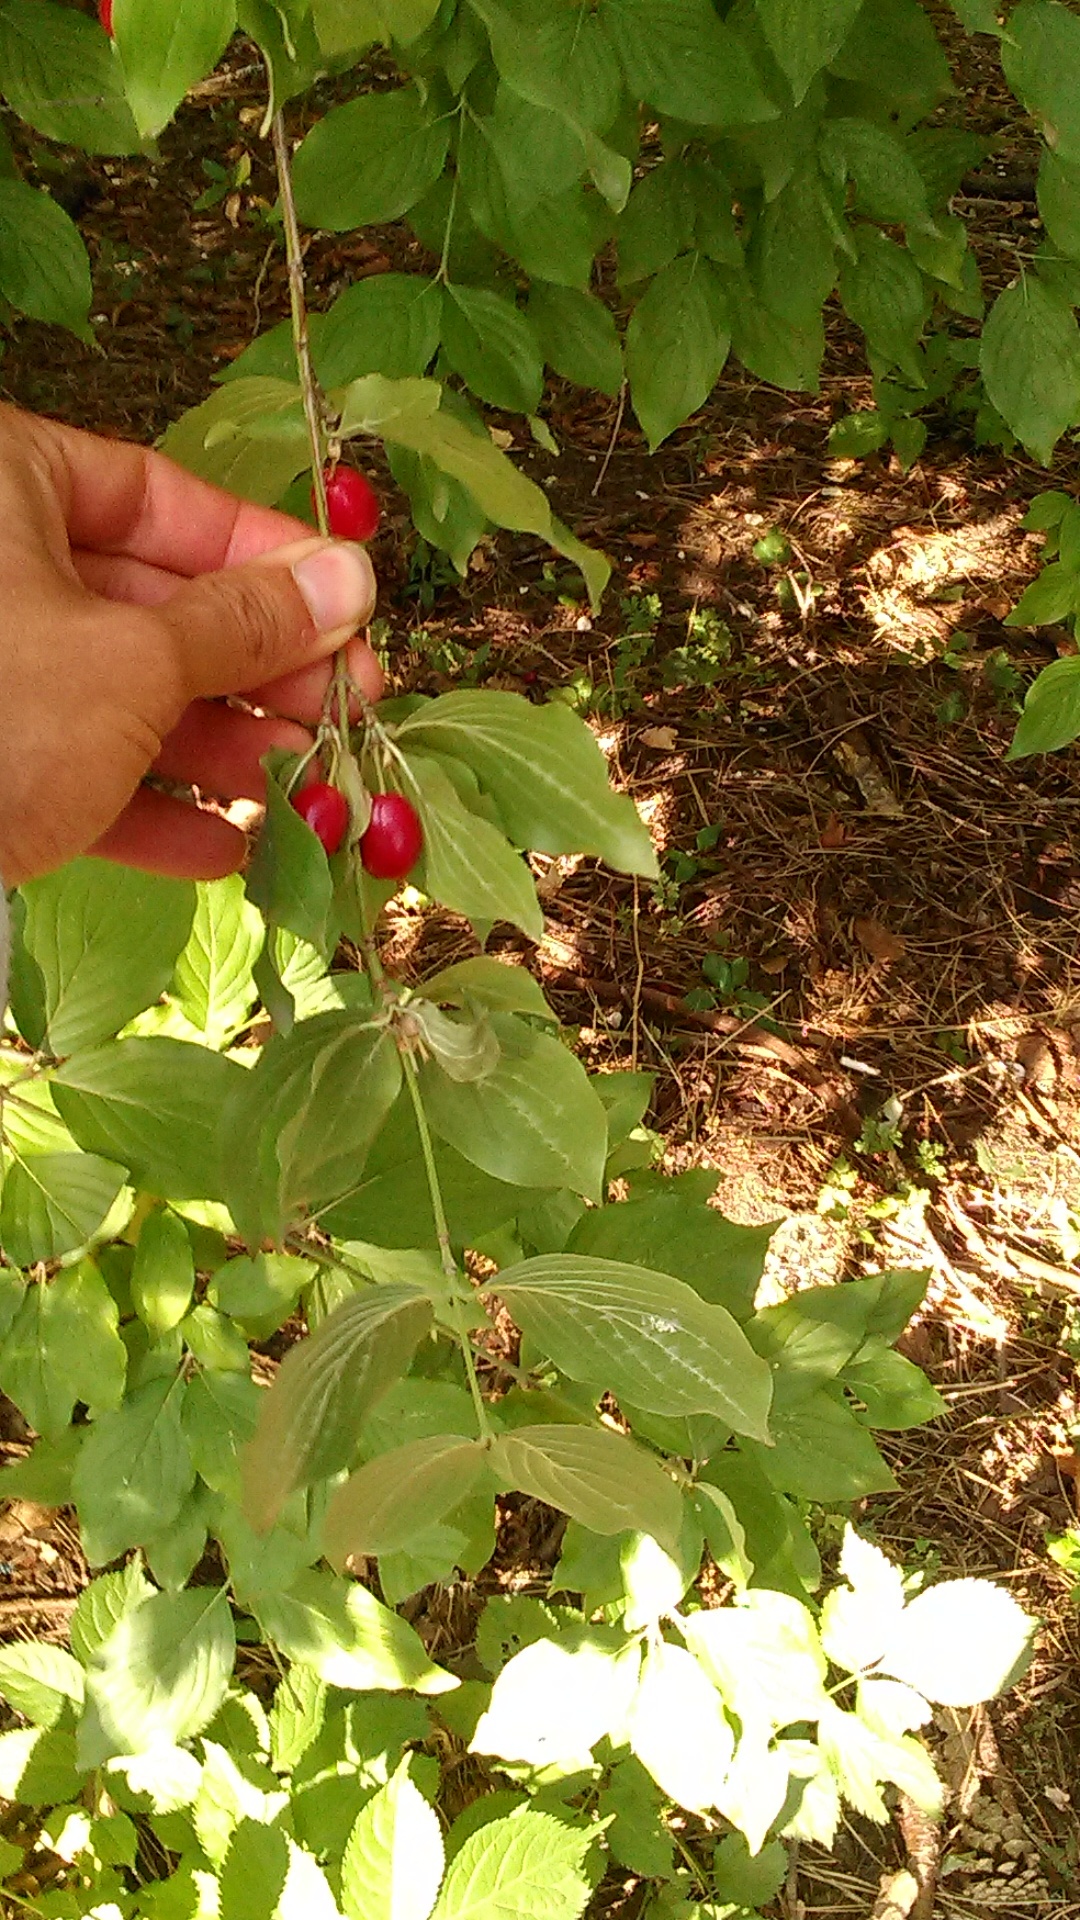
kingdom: Plantae
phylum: Tracheophyta
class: Magnoliopsida
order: Cornales
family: Cornaceae
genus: Cornus
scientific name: Cornus mas
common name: Cornelian-cherry
